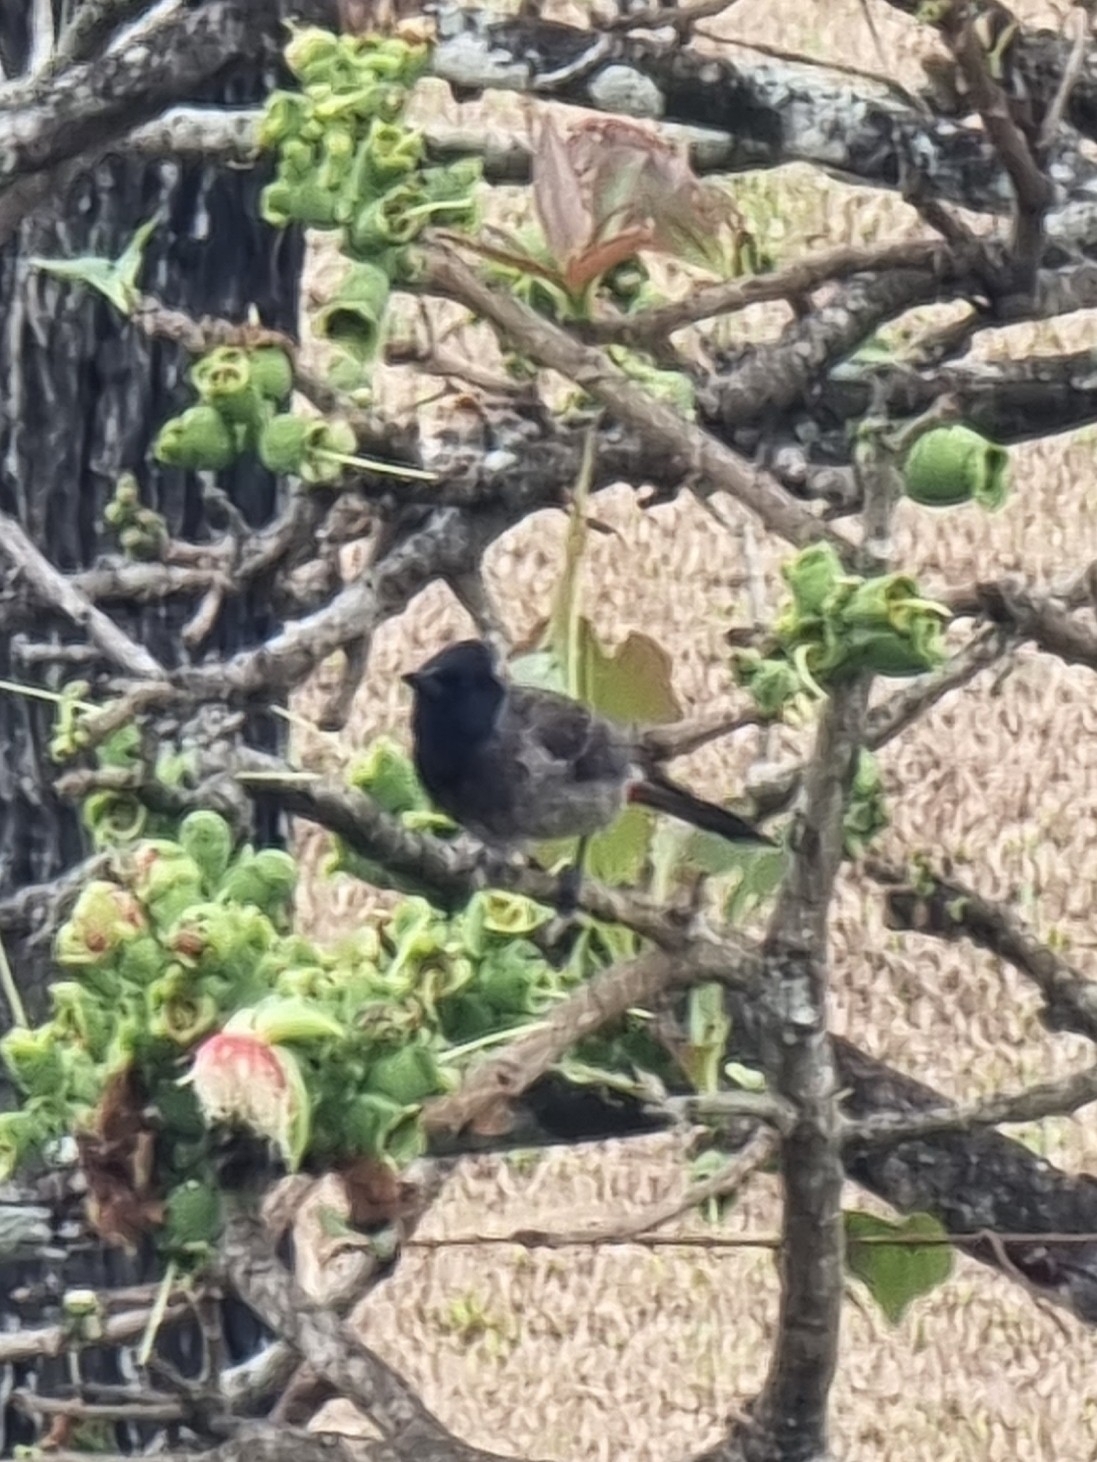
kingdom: Animalia
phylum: Chordata
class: Aves
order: Passeriformes
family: Pycnonotidae
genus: Pycnonotus
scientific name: Pycnonotus cafer
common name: Red-vented bulbul
